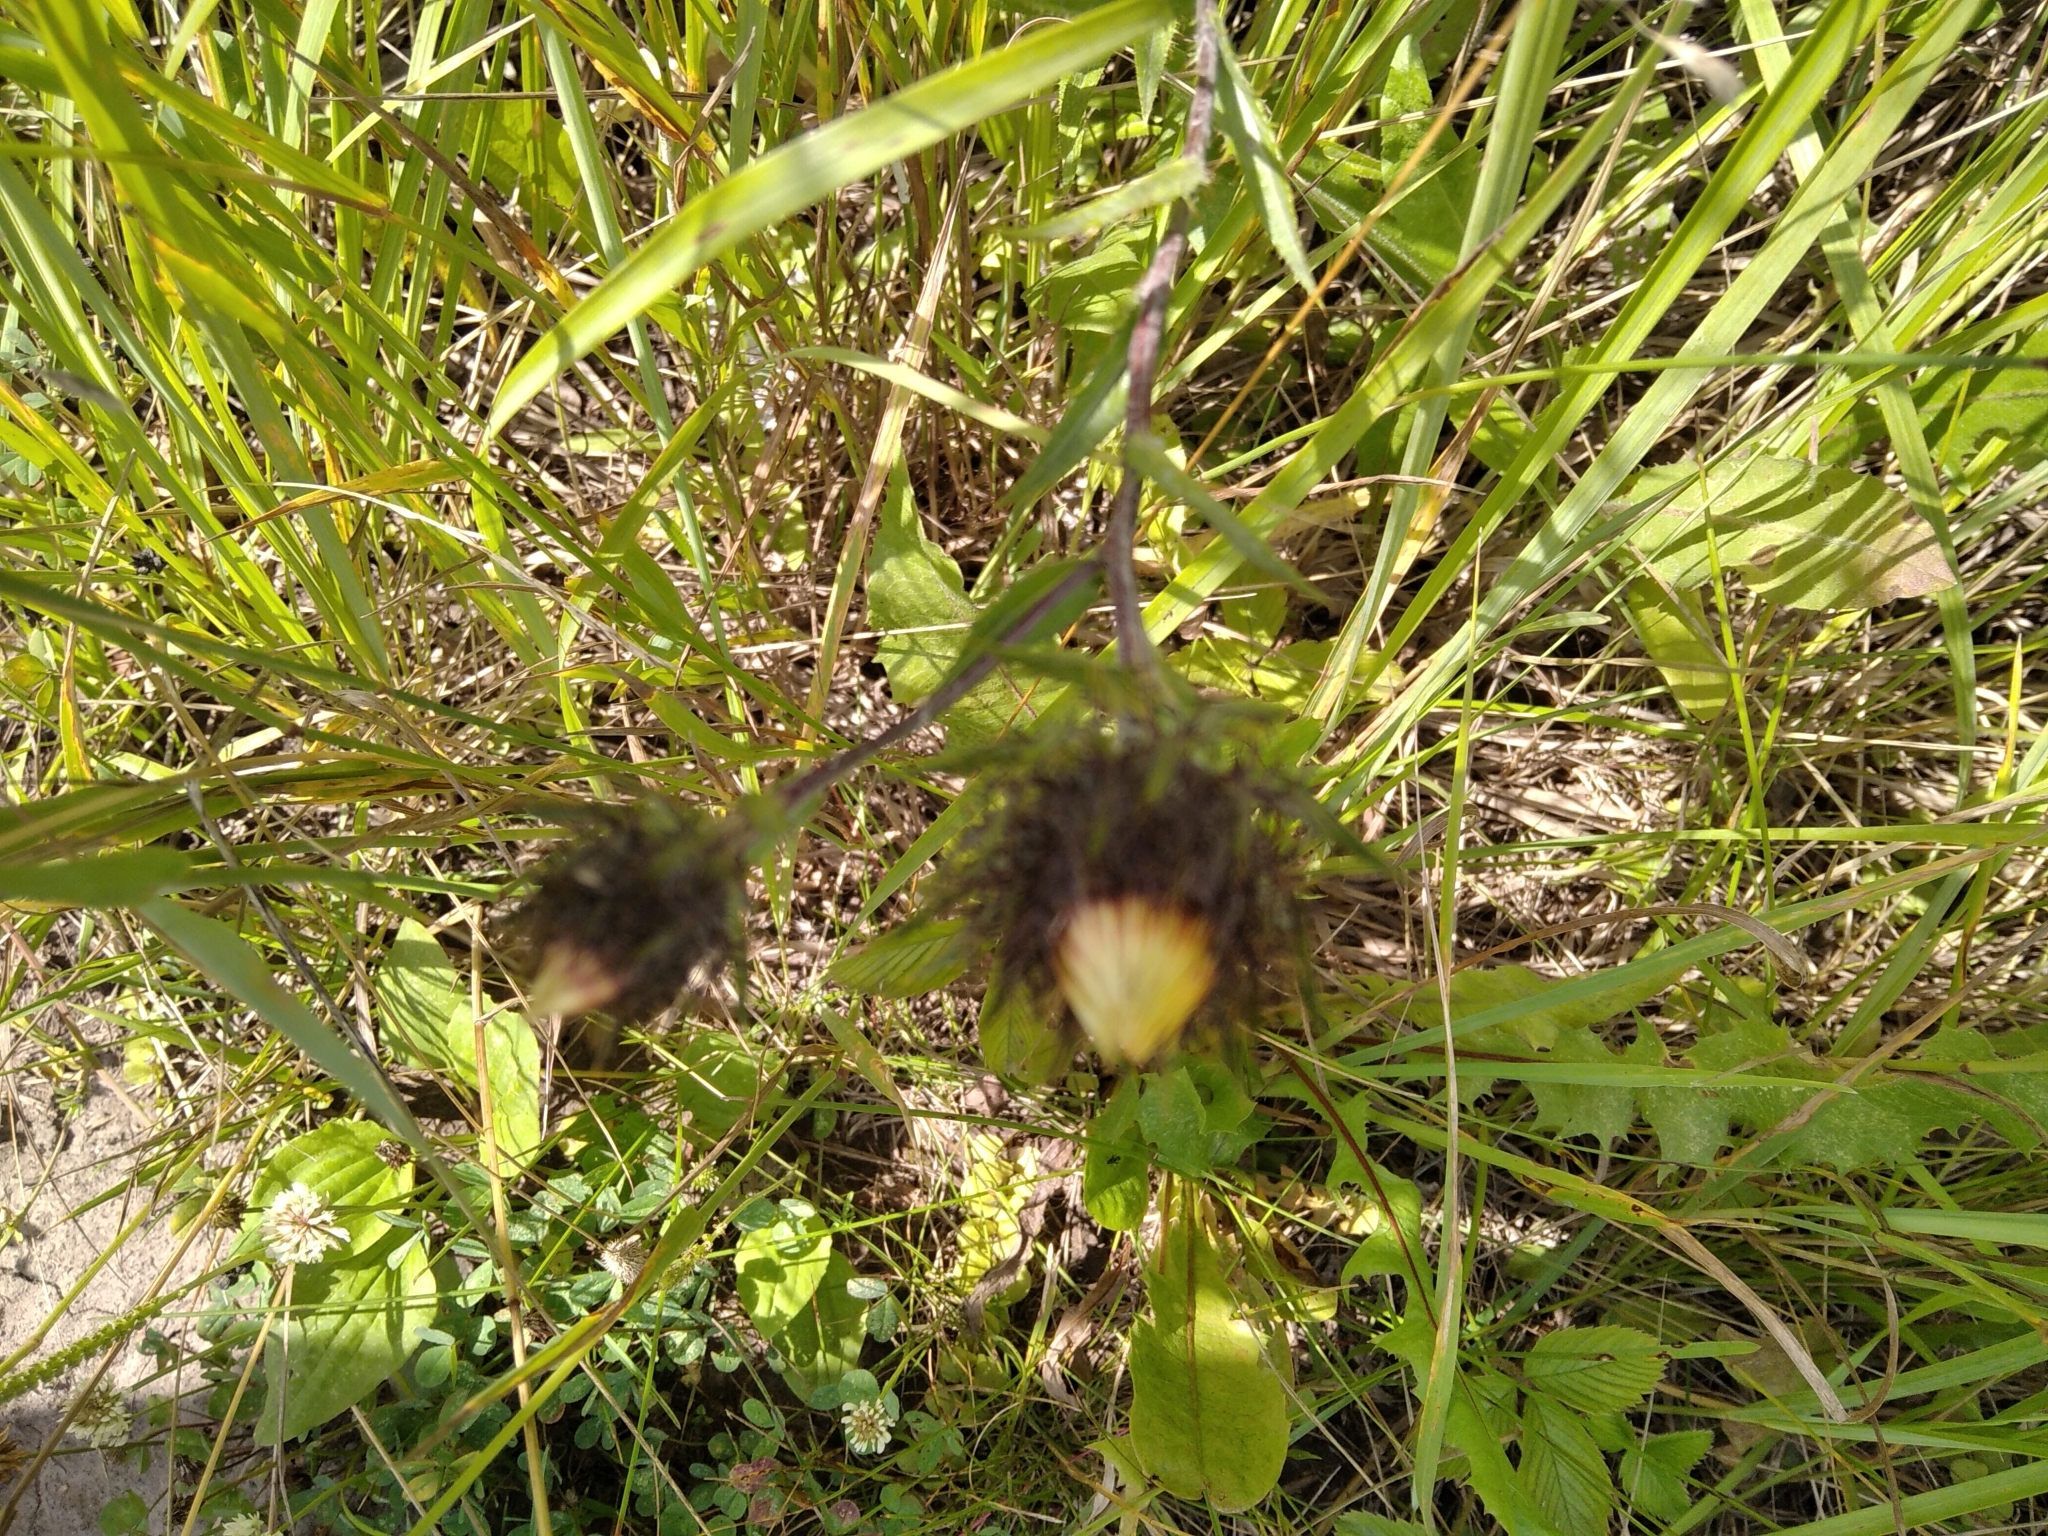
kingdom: Plantae
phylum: Tracheophyta
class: Magnoliopsida
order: Asterales
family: Asteraceae
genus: Carlina
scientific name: Carlina biebersteinii
